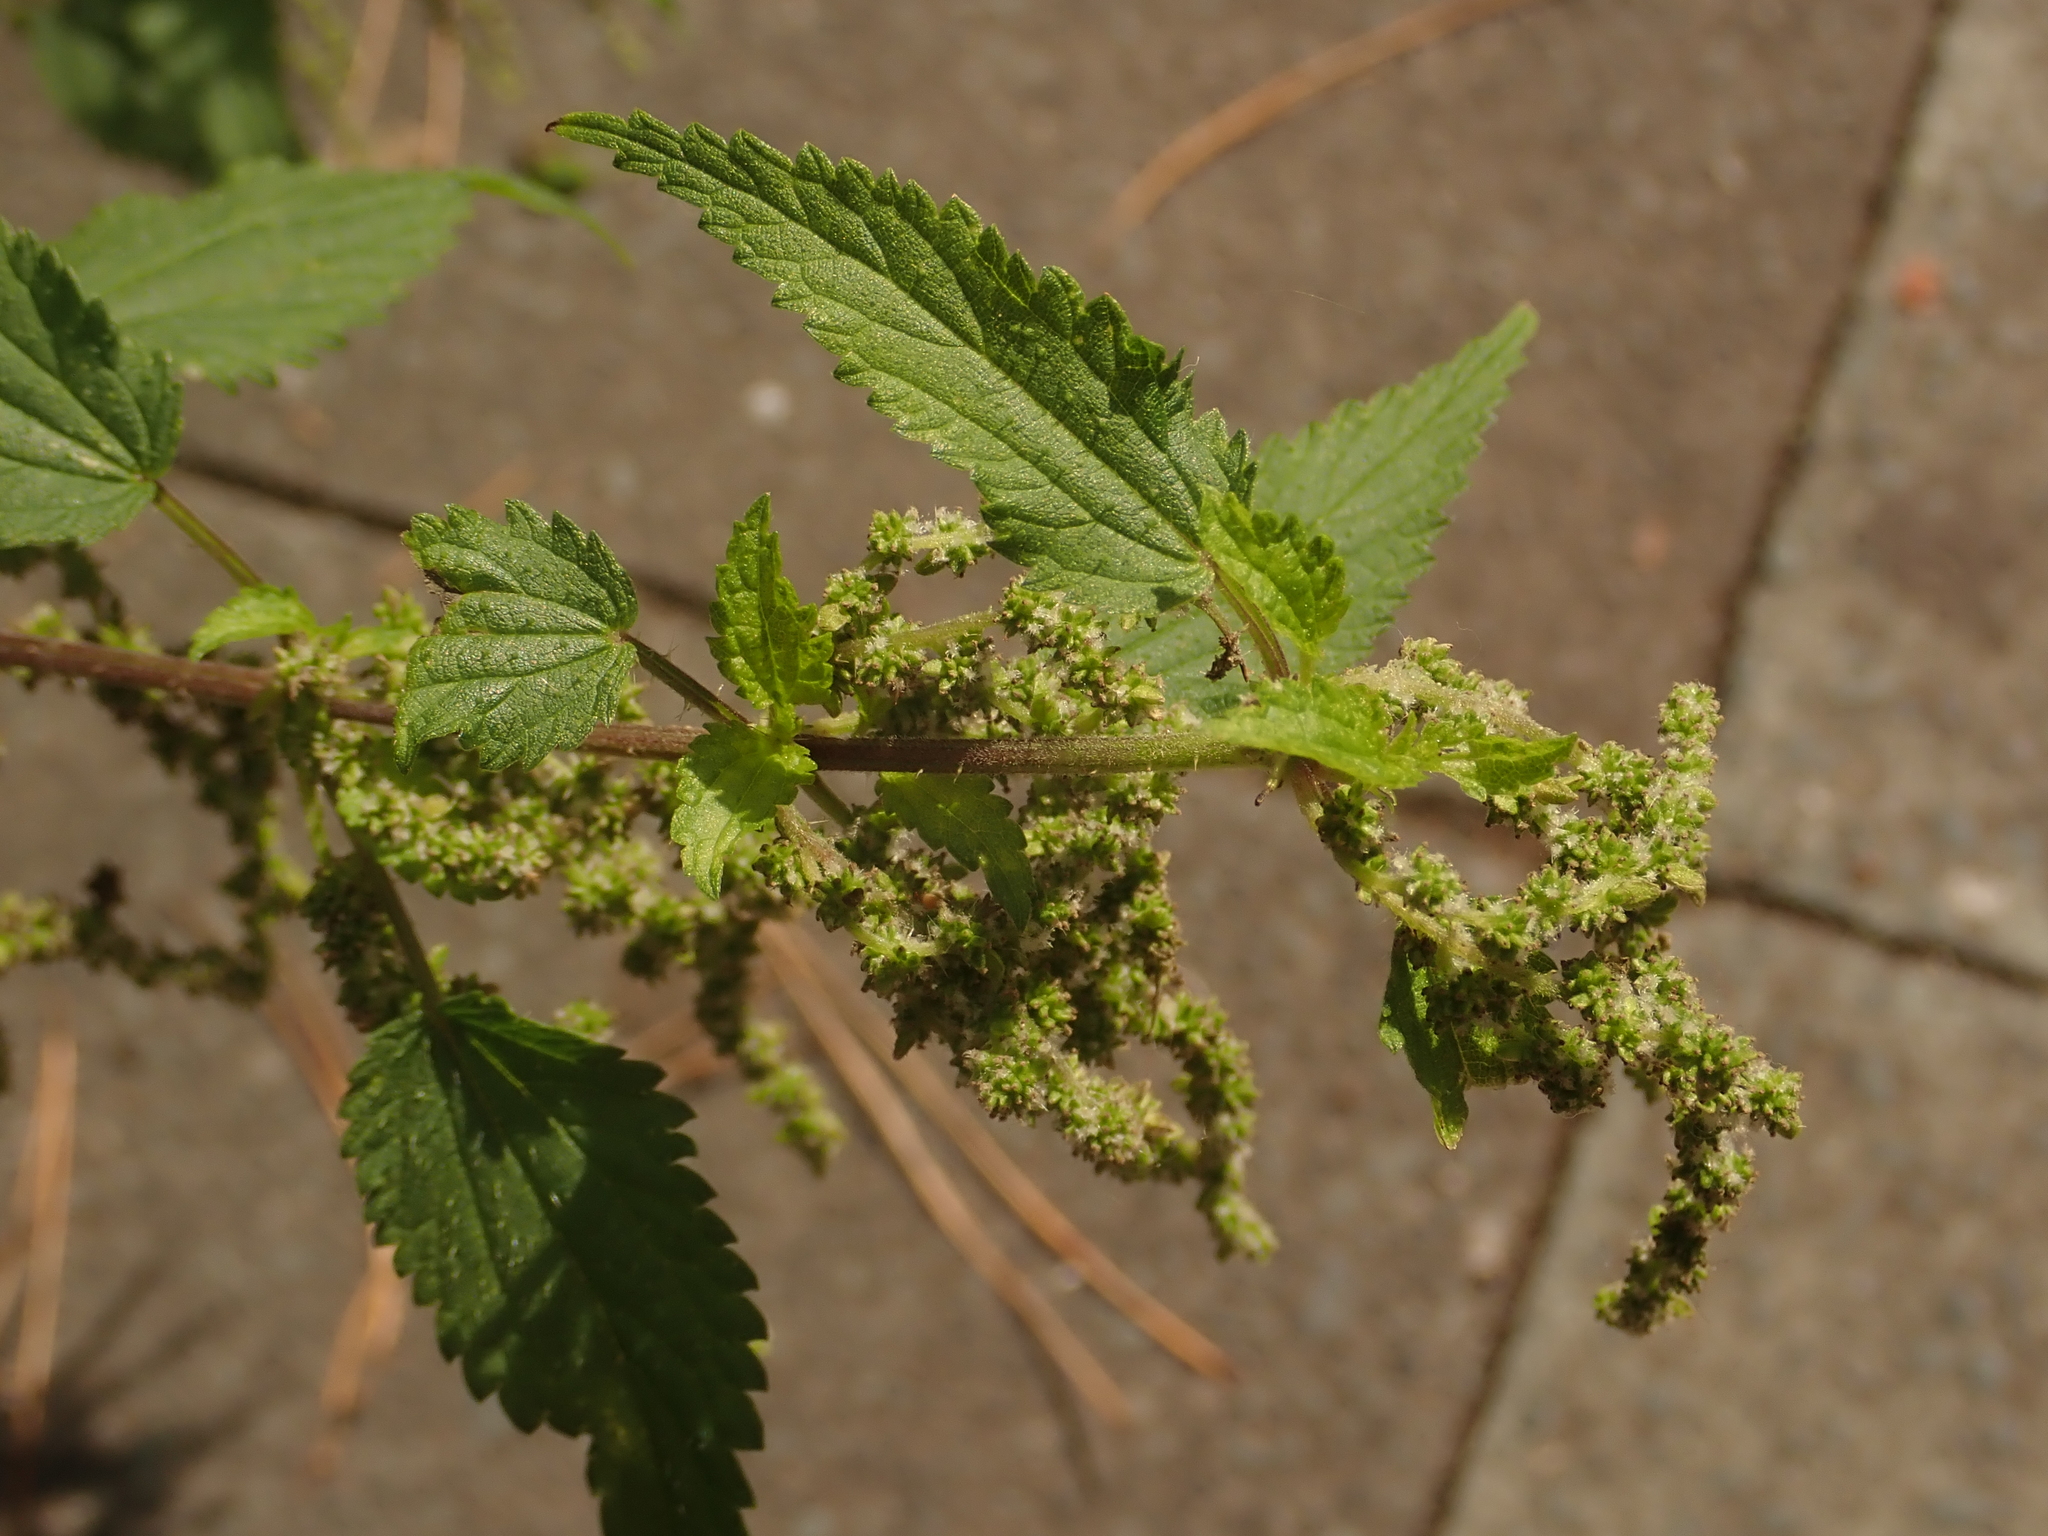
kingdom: Plantae
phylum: Tracheophyta
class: Magnoliopsida
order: Rosales
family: Urticaceae
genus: Urtica
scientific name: Urtica dioica
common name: Common nettle
